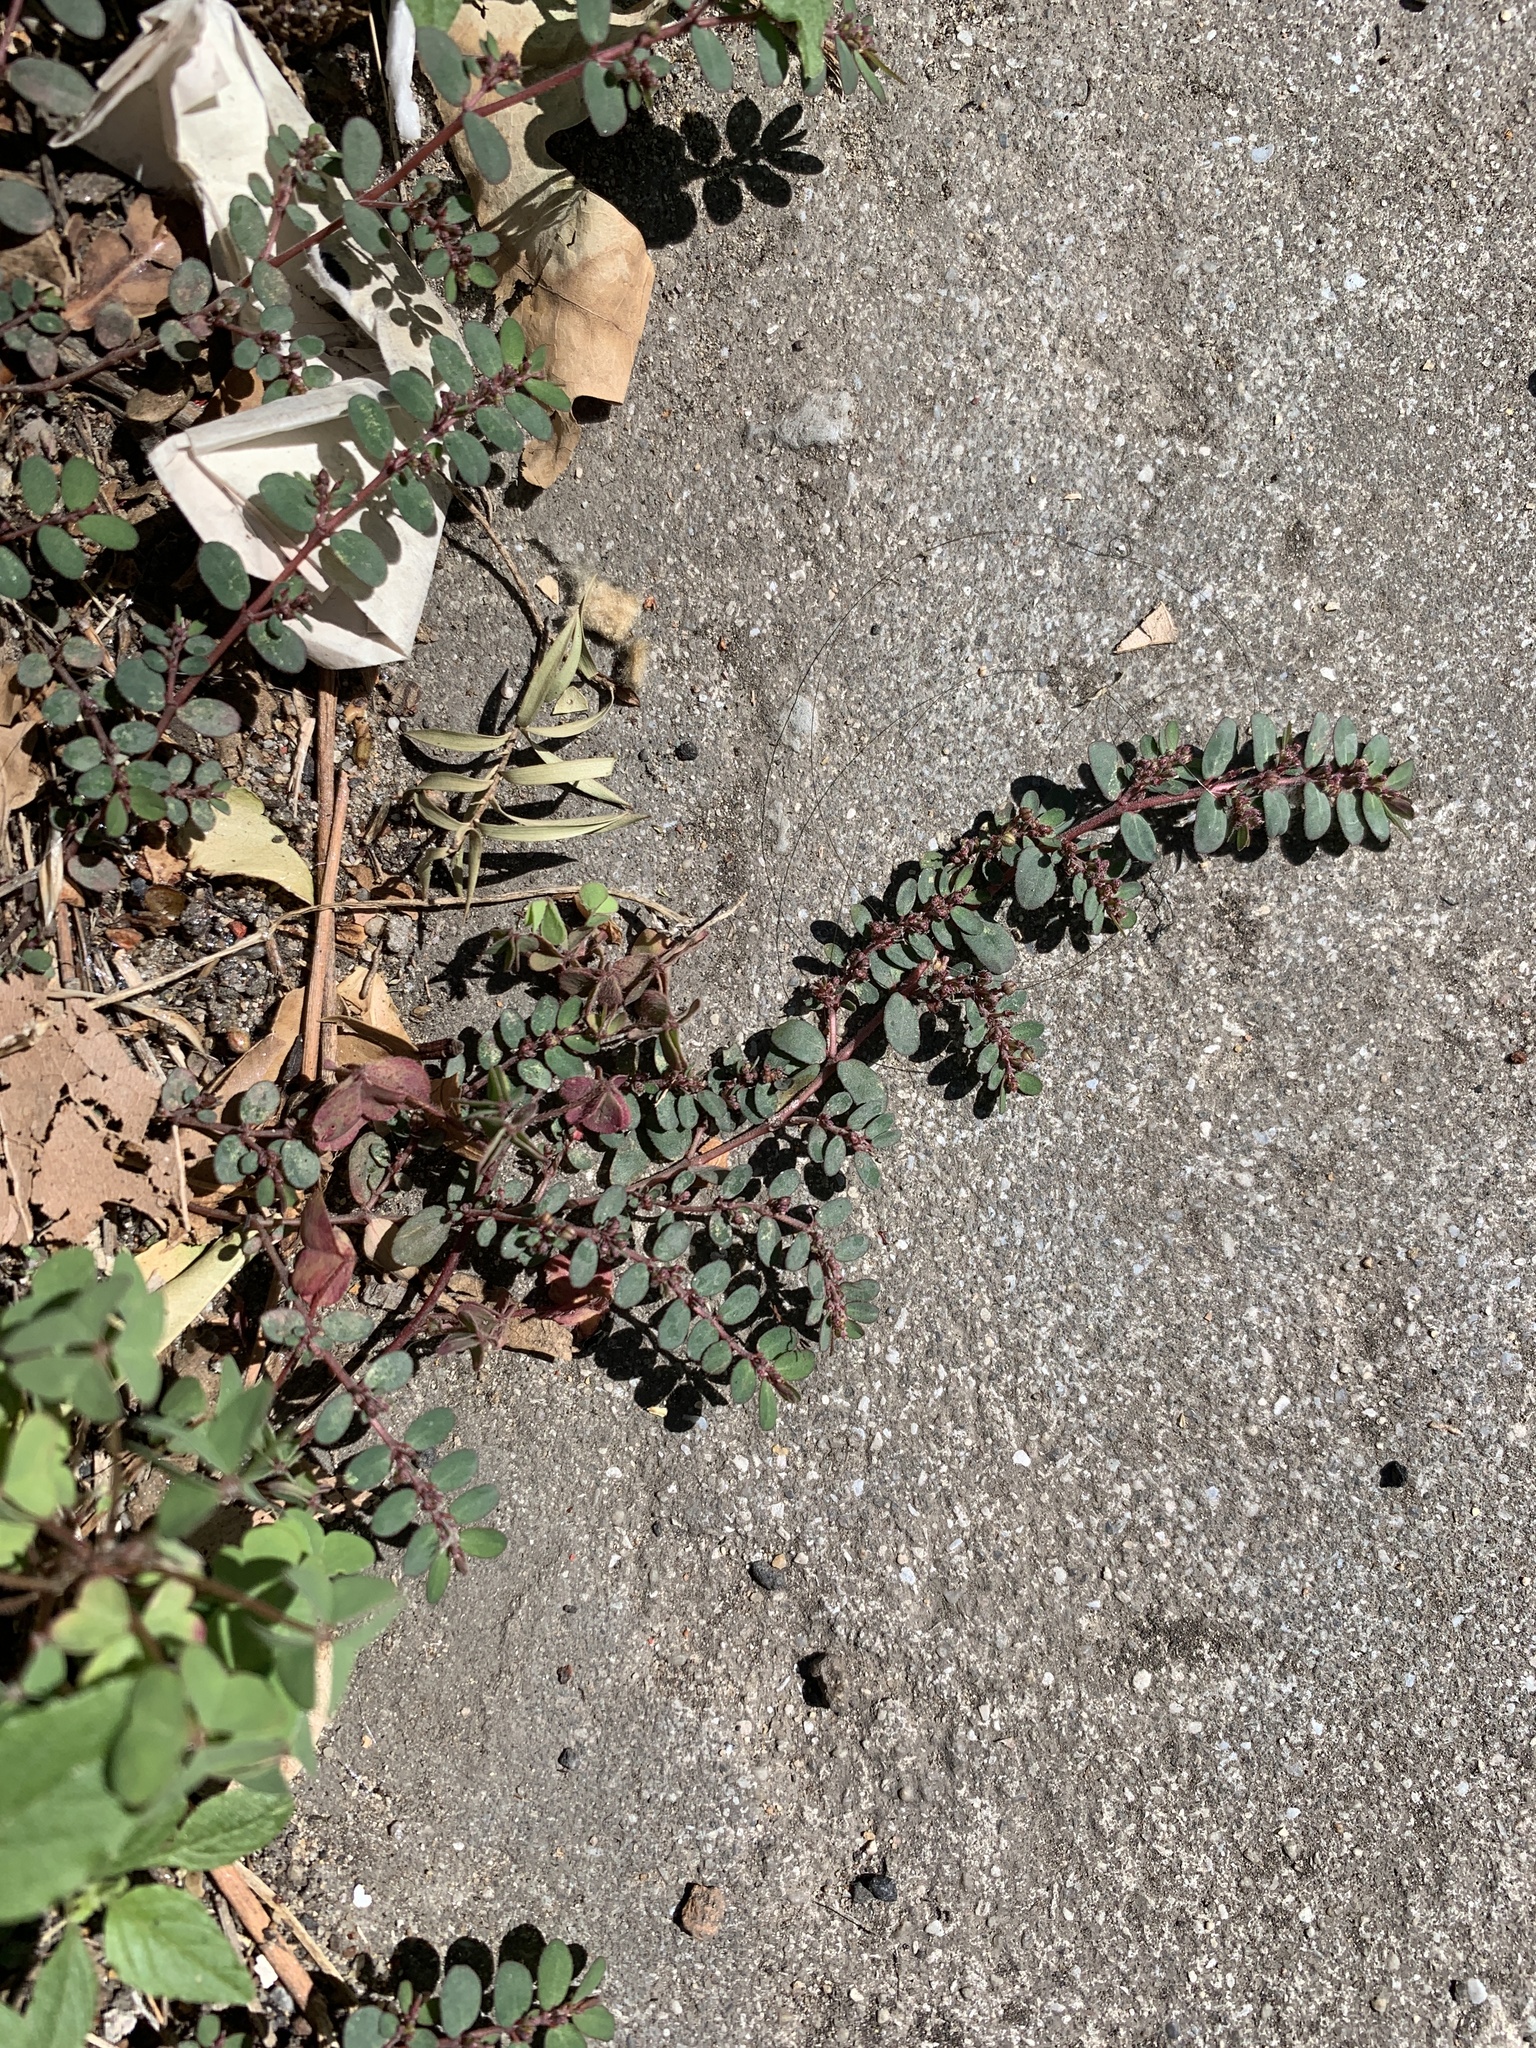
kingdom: Plantae
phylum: Tracheophyta
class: Magnoliopsida
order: Malpighiales
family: Euphorbiaceae
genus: Euphorbia
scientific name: Euphorbia prostrata
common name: Prostrate sandmat
